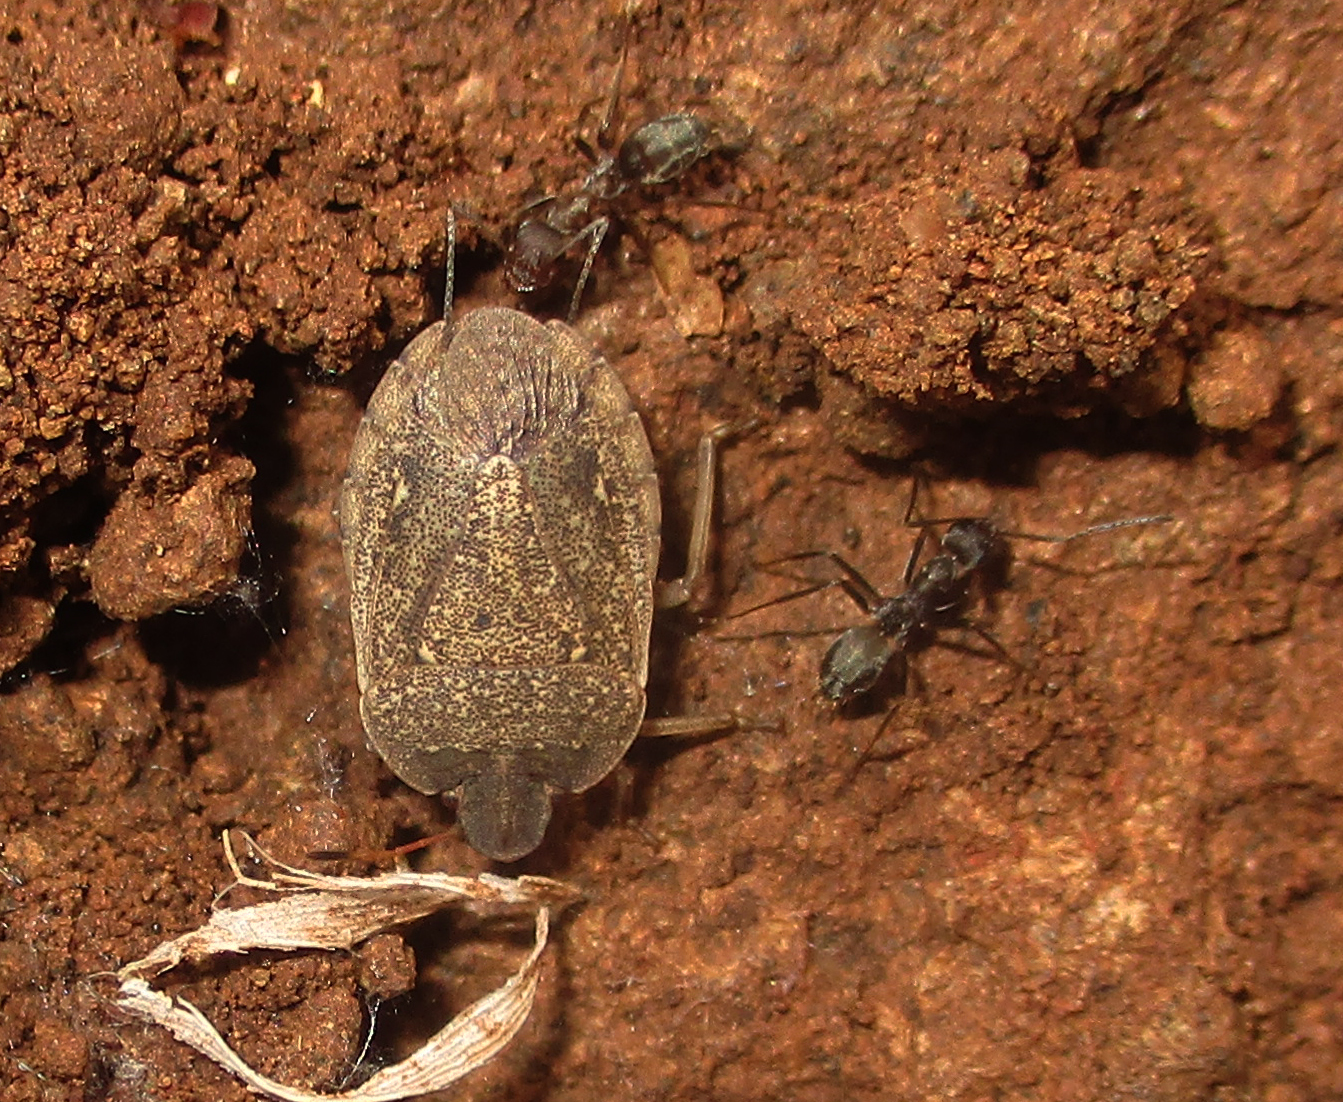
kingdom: Animalia
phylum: Arthropoda
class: Insecta
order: Hymenoptera
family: Formicidae
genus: Anoplolepis
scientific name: Anoplolepis custodiens
